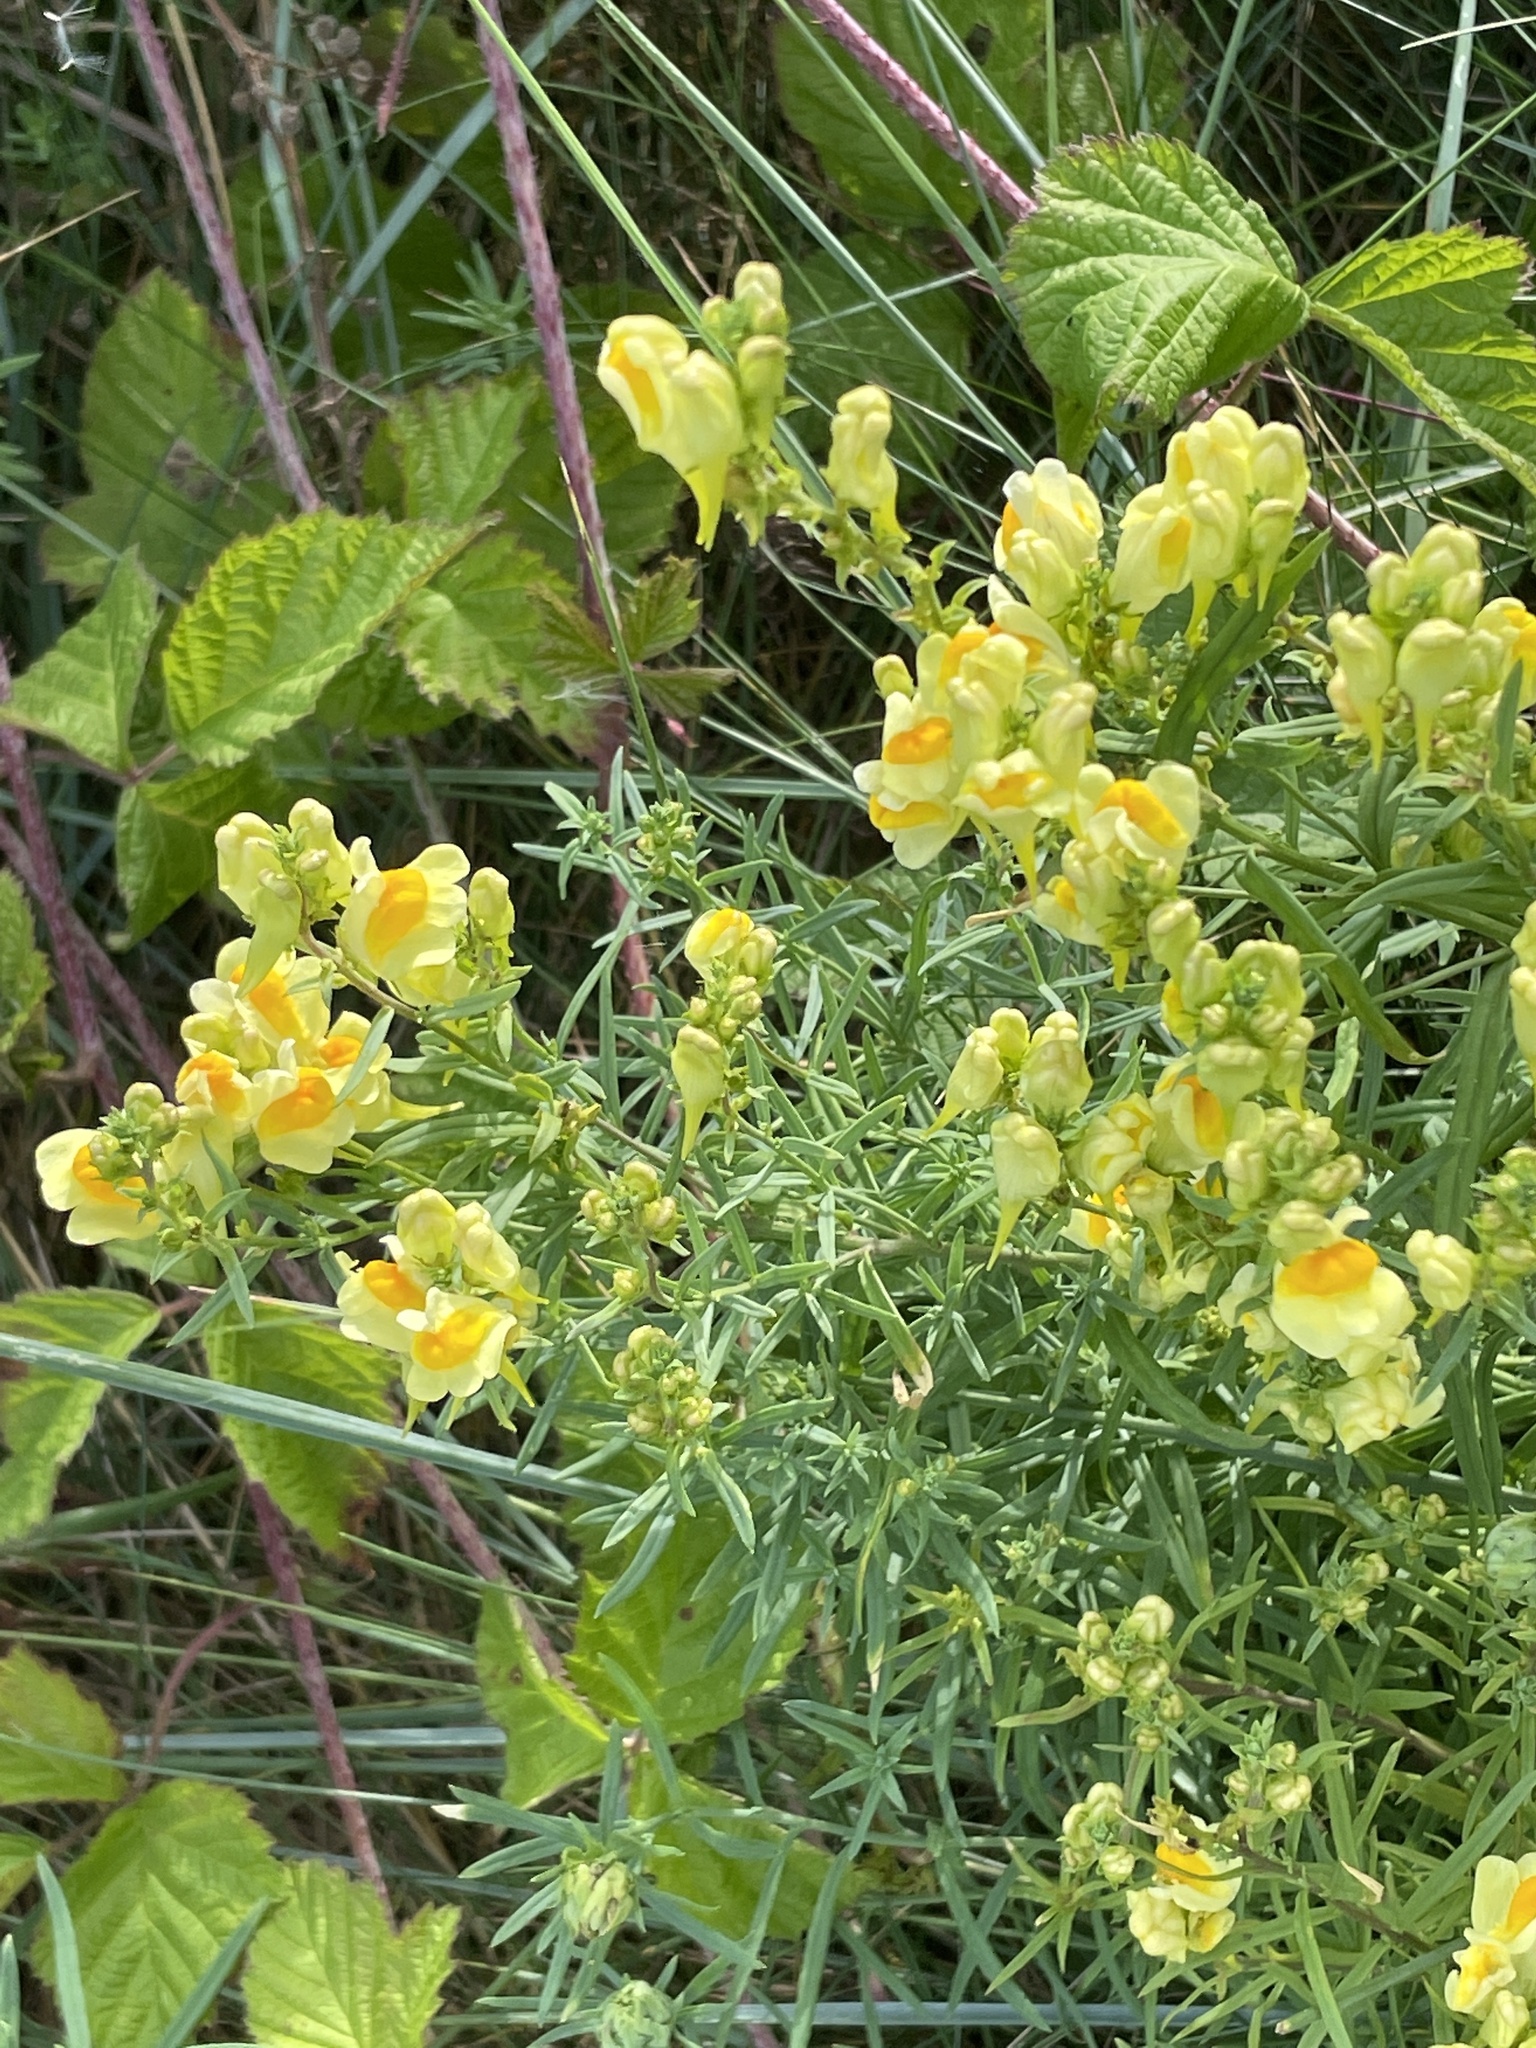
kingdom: Plantae
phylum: Tracheophyta
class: Magnoliopsida
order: Lamiales
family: Plantaginaceae
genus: Linaria
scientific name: Linaria vulgaris
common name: Butter and eggs
